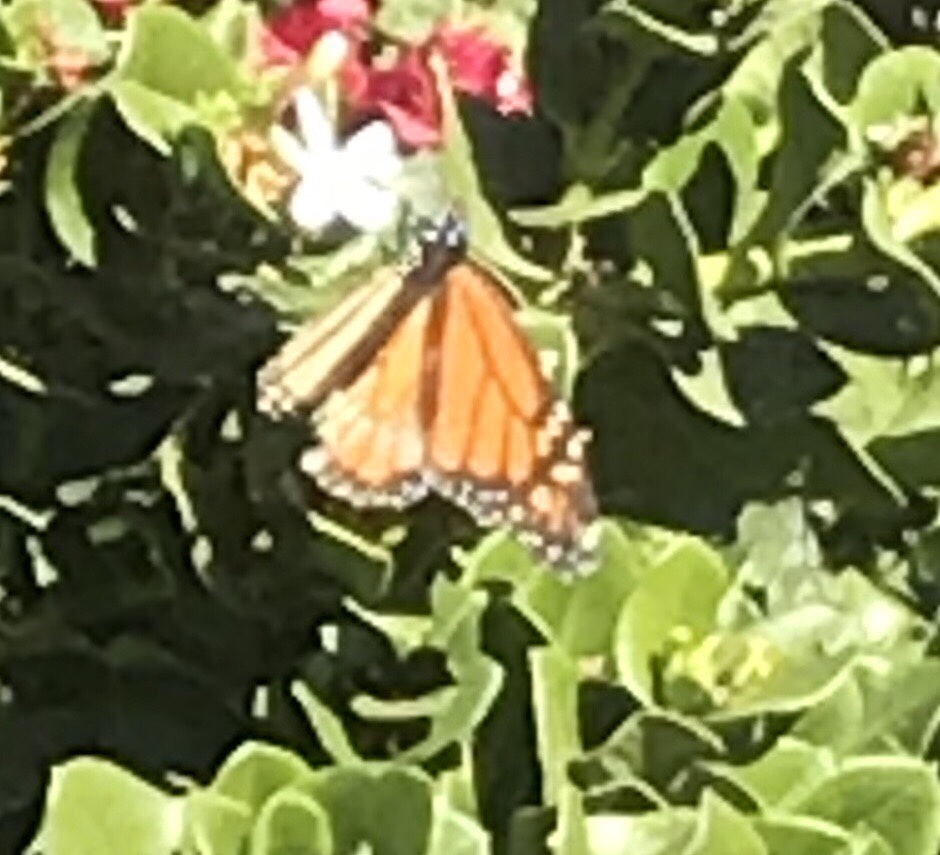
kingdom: Animalia
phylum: Arthropoda
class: Insecta
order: Lepidoptera
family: Nymphalidae
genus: Danaus
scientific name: Danaus plexippus
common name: Monarch
